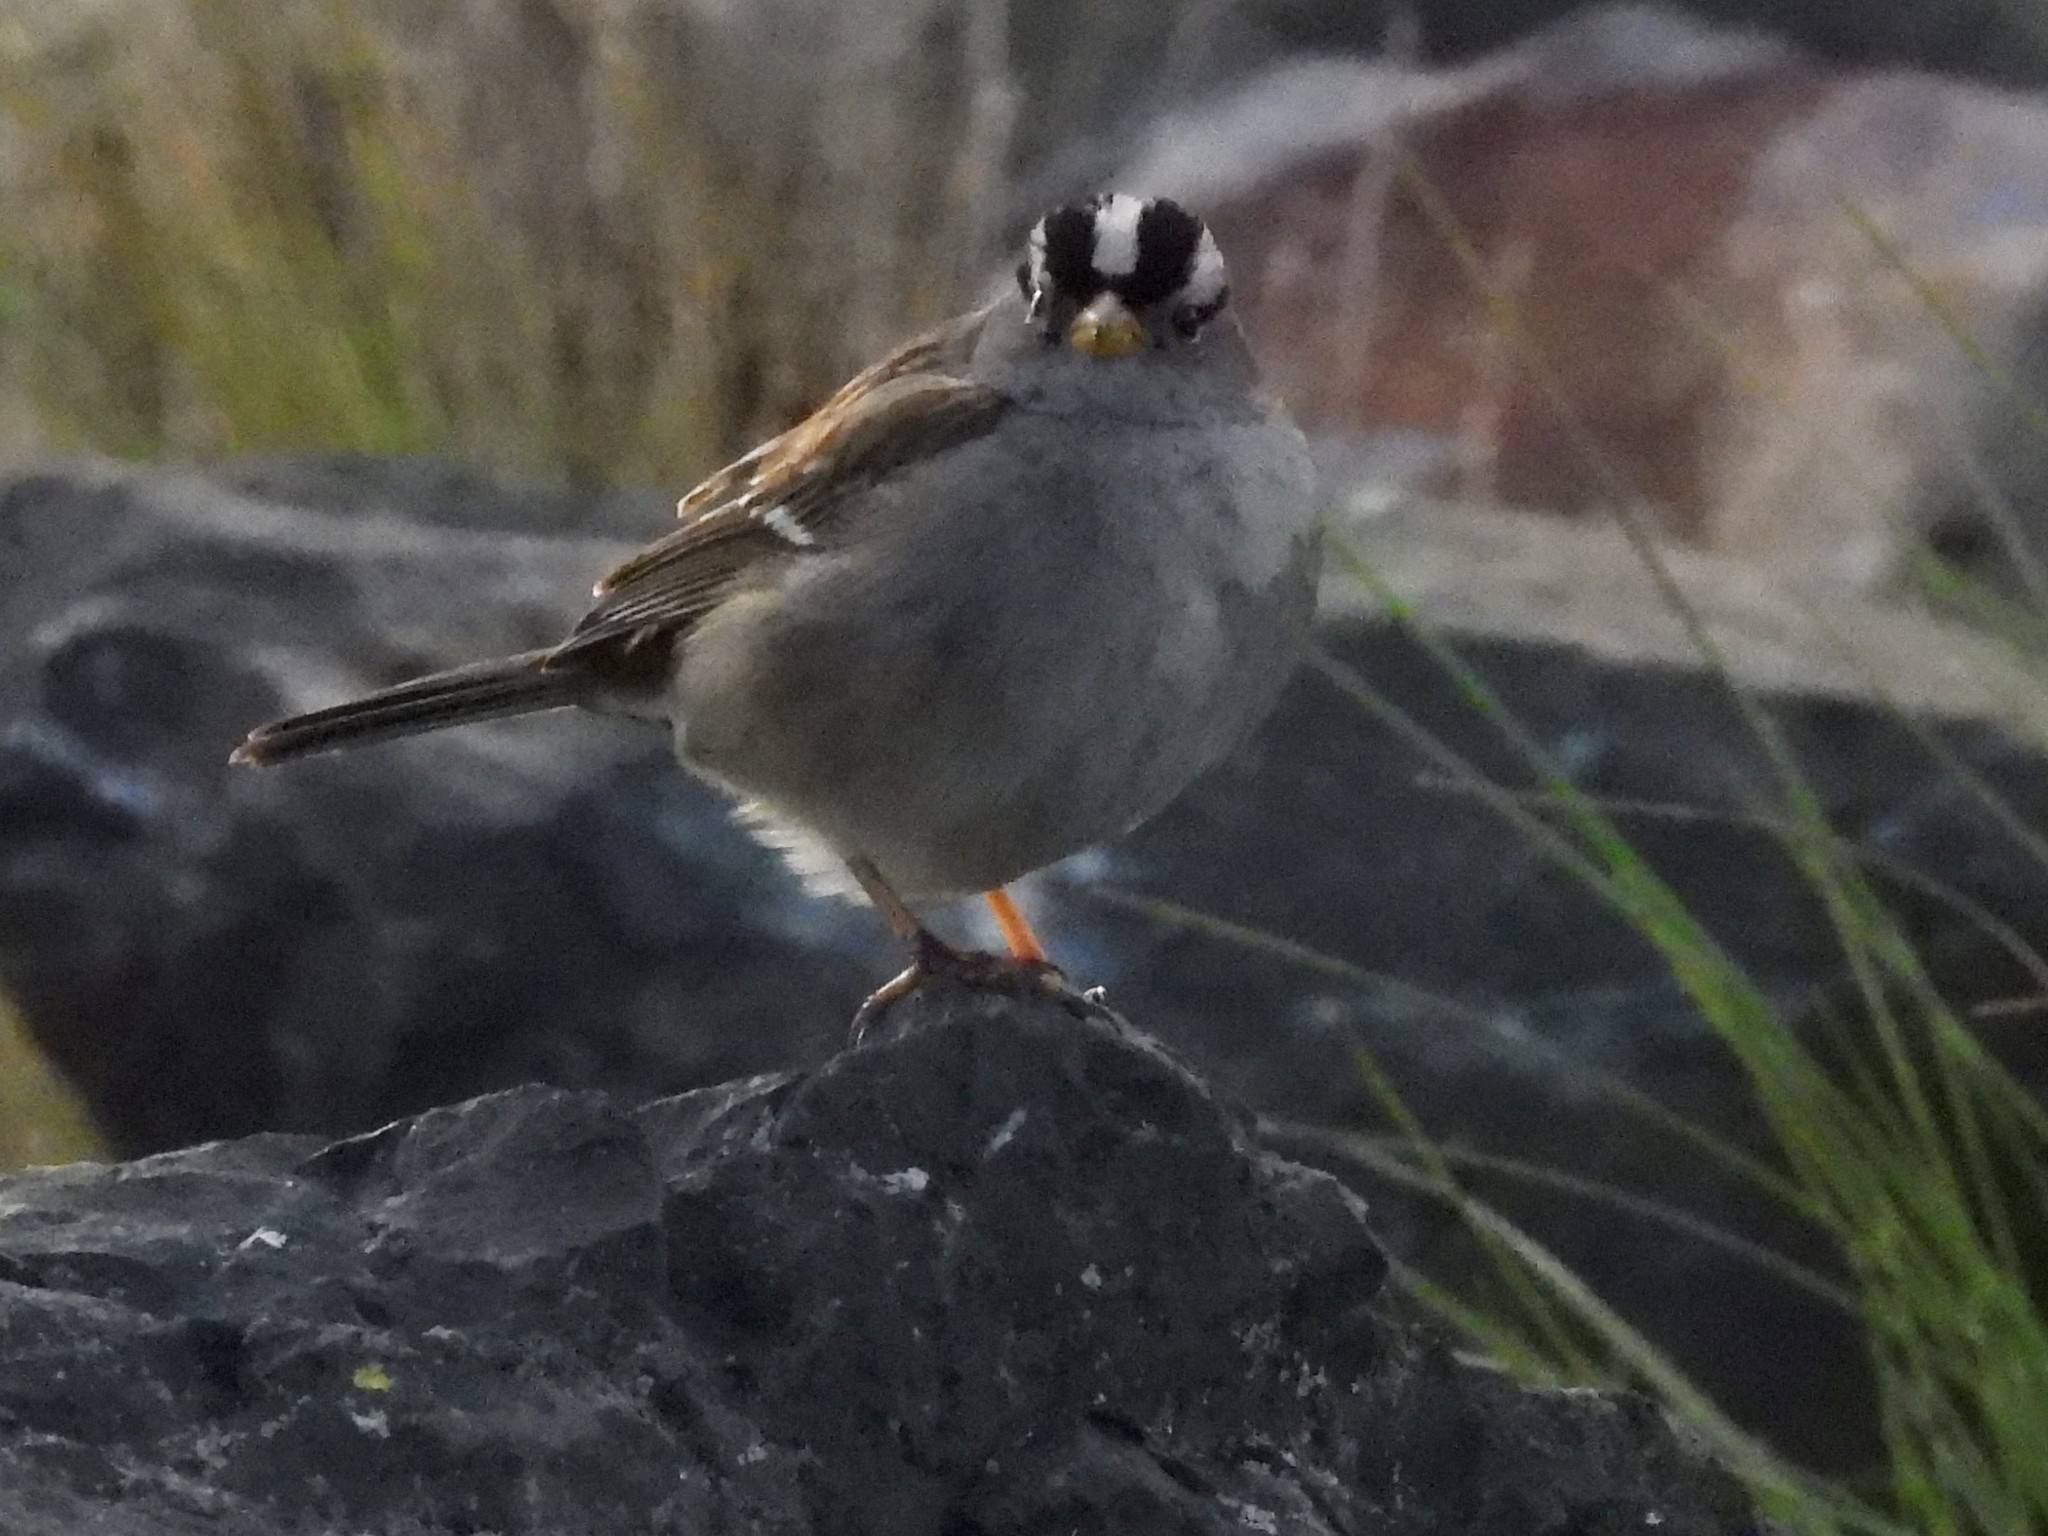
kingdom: Animalia
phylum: Chordata
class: Aves
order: Passeriformes
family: Passerellidae
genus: Zonotrichia
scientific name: Zonotrichia leucophrys
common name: White-crowned sparrow
